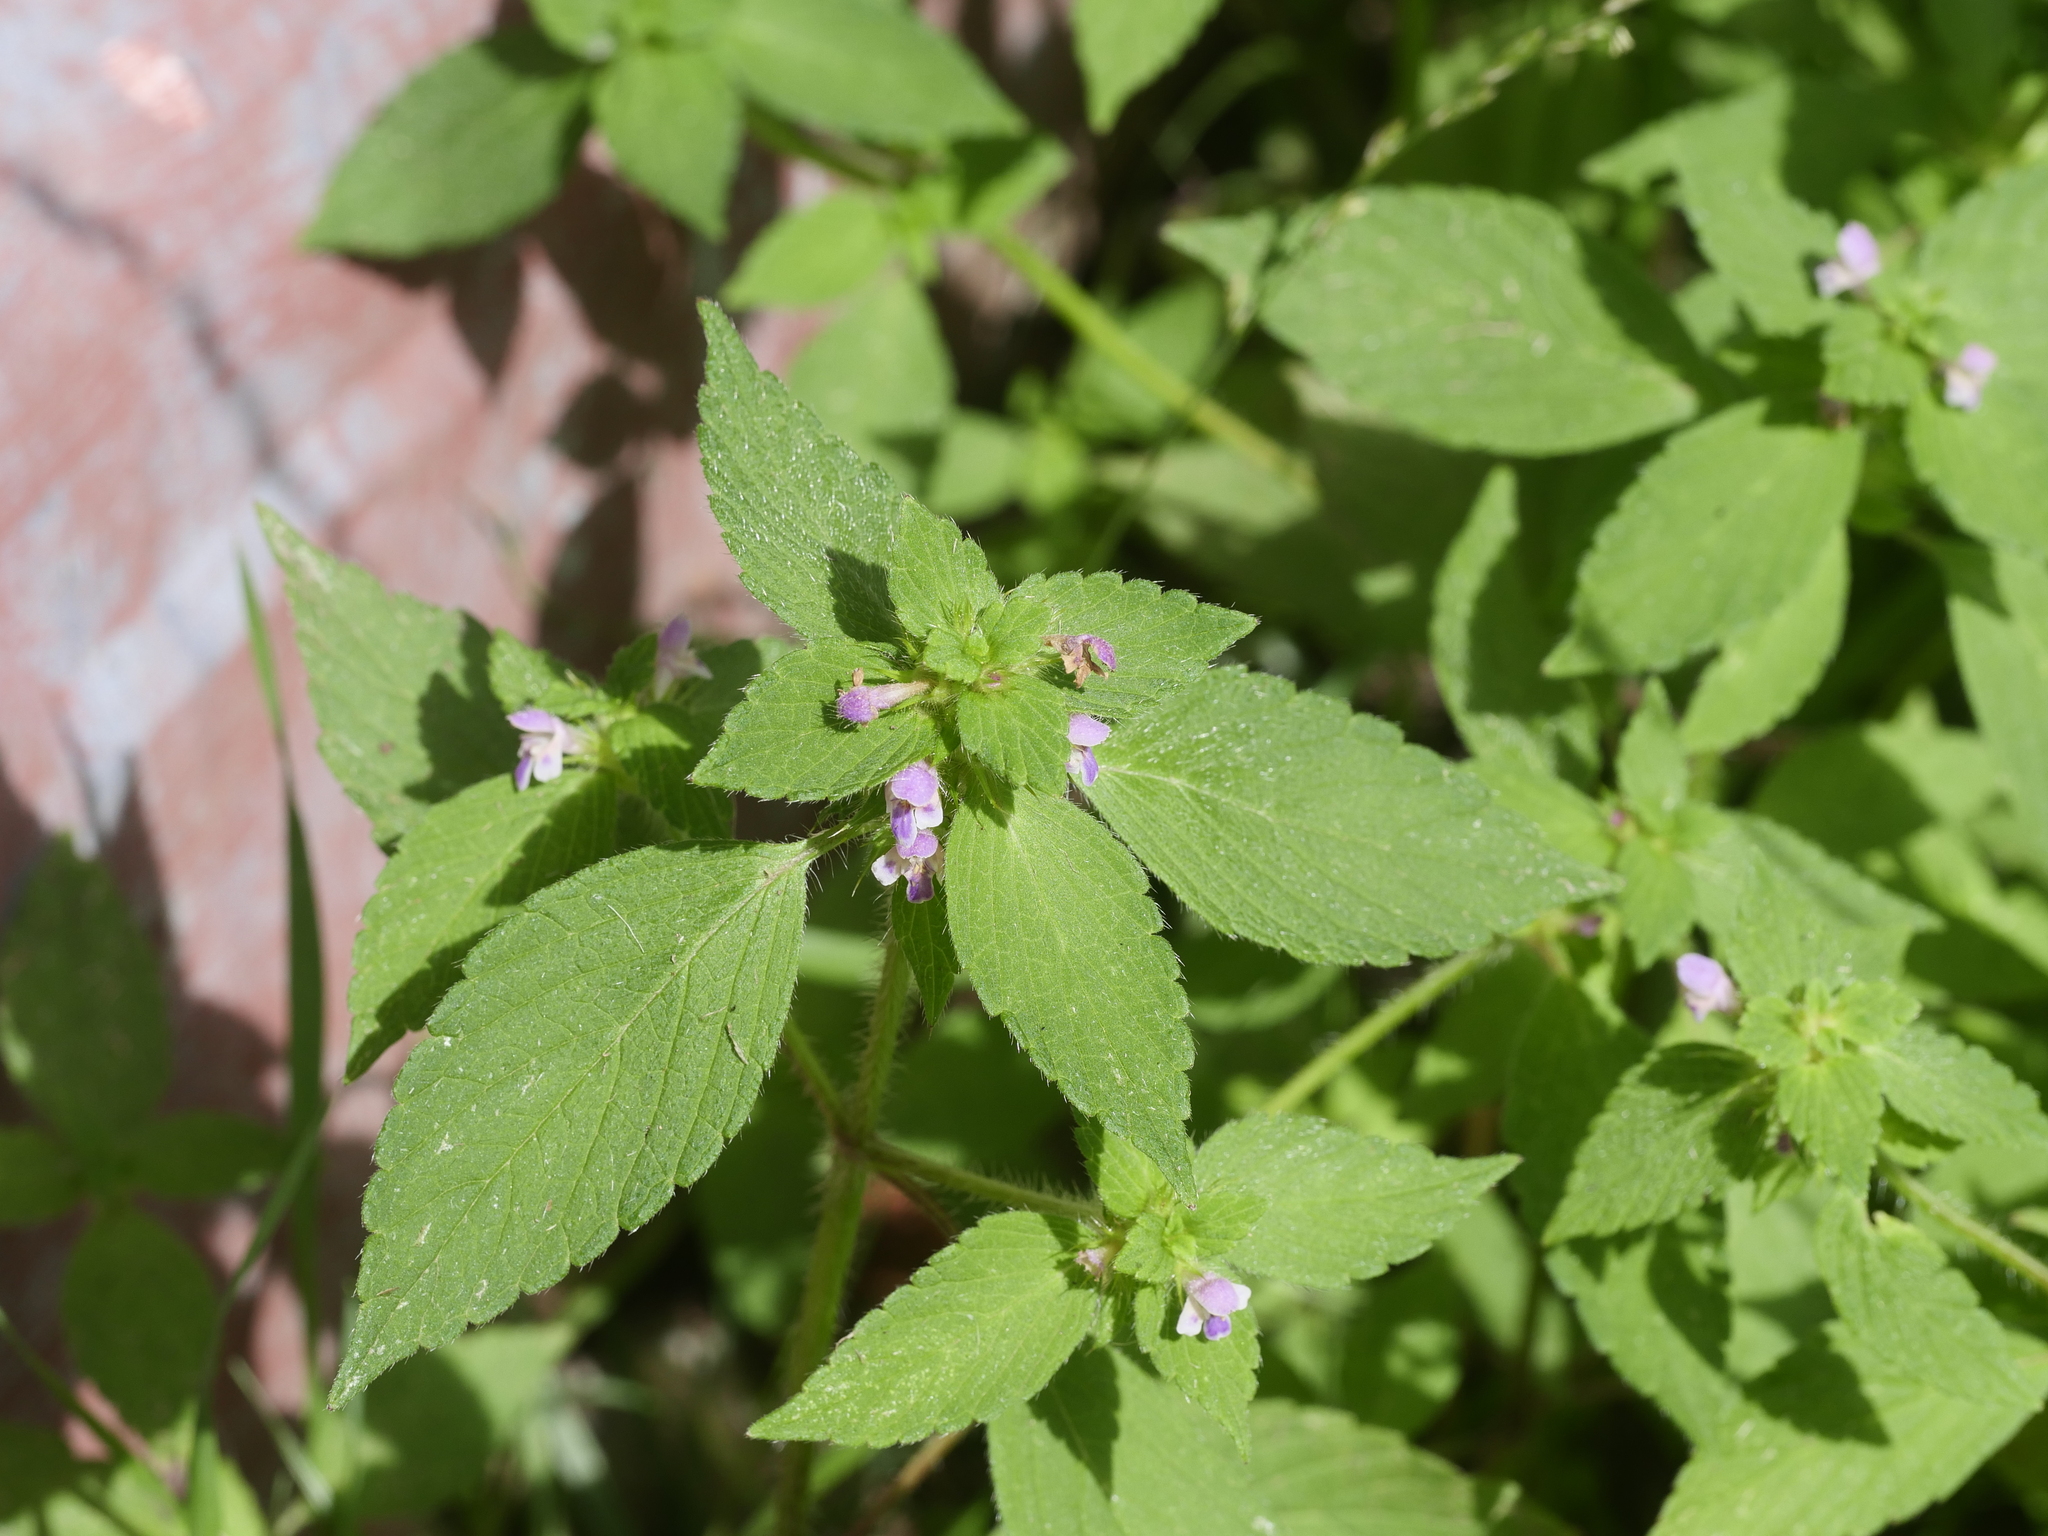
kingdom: Plantae
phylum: Tracheophyta
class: Magnoliopsida
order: Lamiales
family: Lamiaceae
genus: Galeopsis
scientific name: Galeopsis bifida
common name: Bifid hemp-nettle
